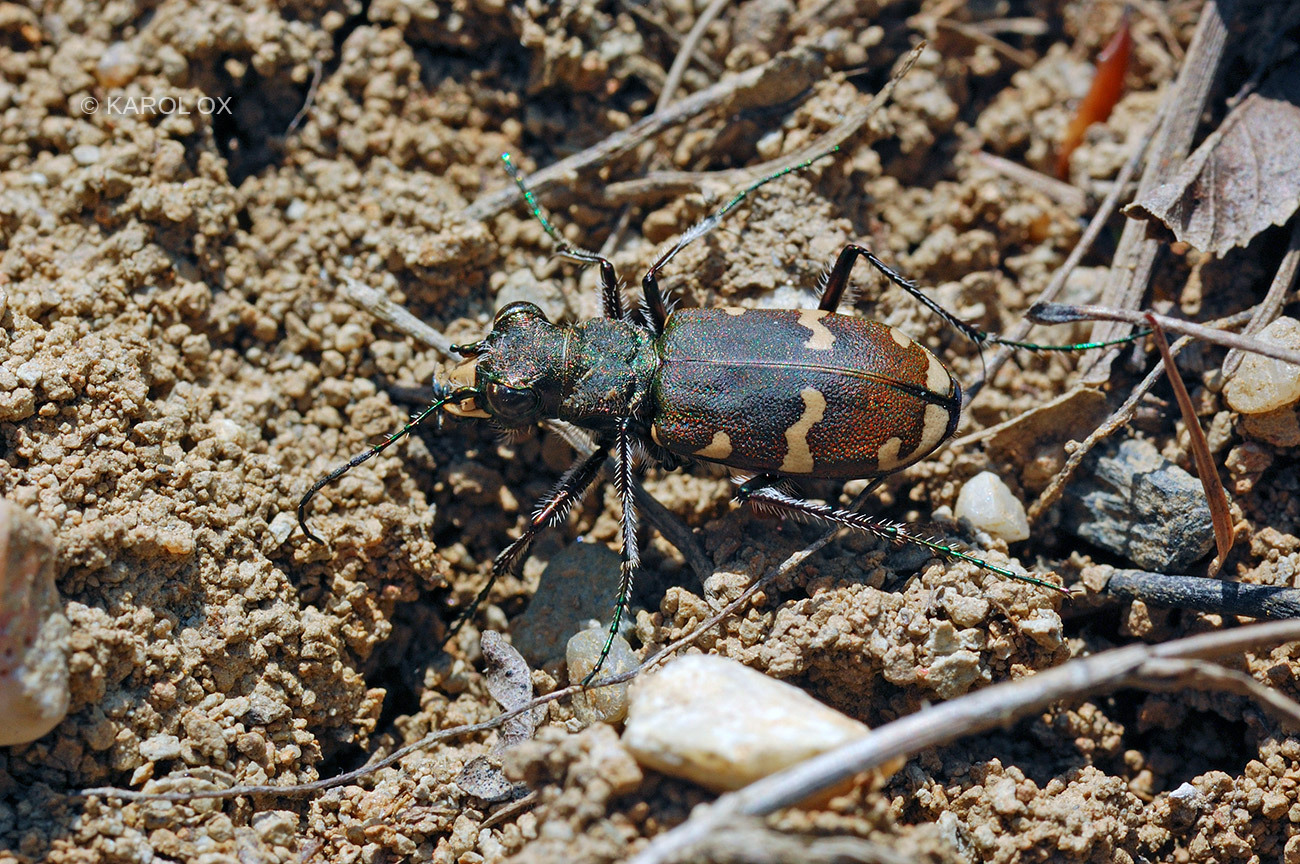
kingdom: Animalia
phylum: Arthropoda
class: Insecta
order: Coleoptera
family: Carabidae
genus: Cicindela
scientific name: Cicindela sylvicola
